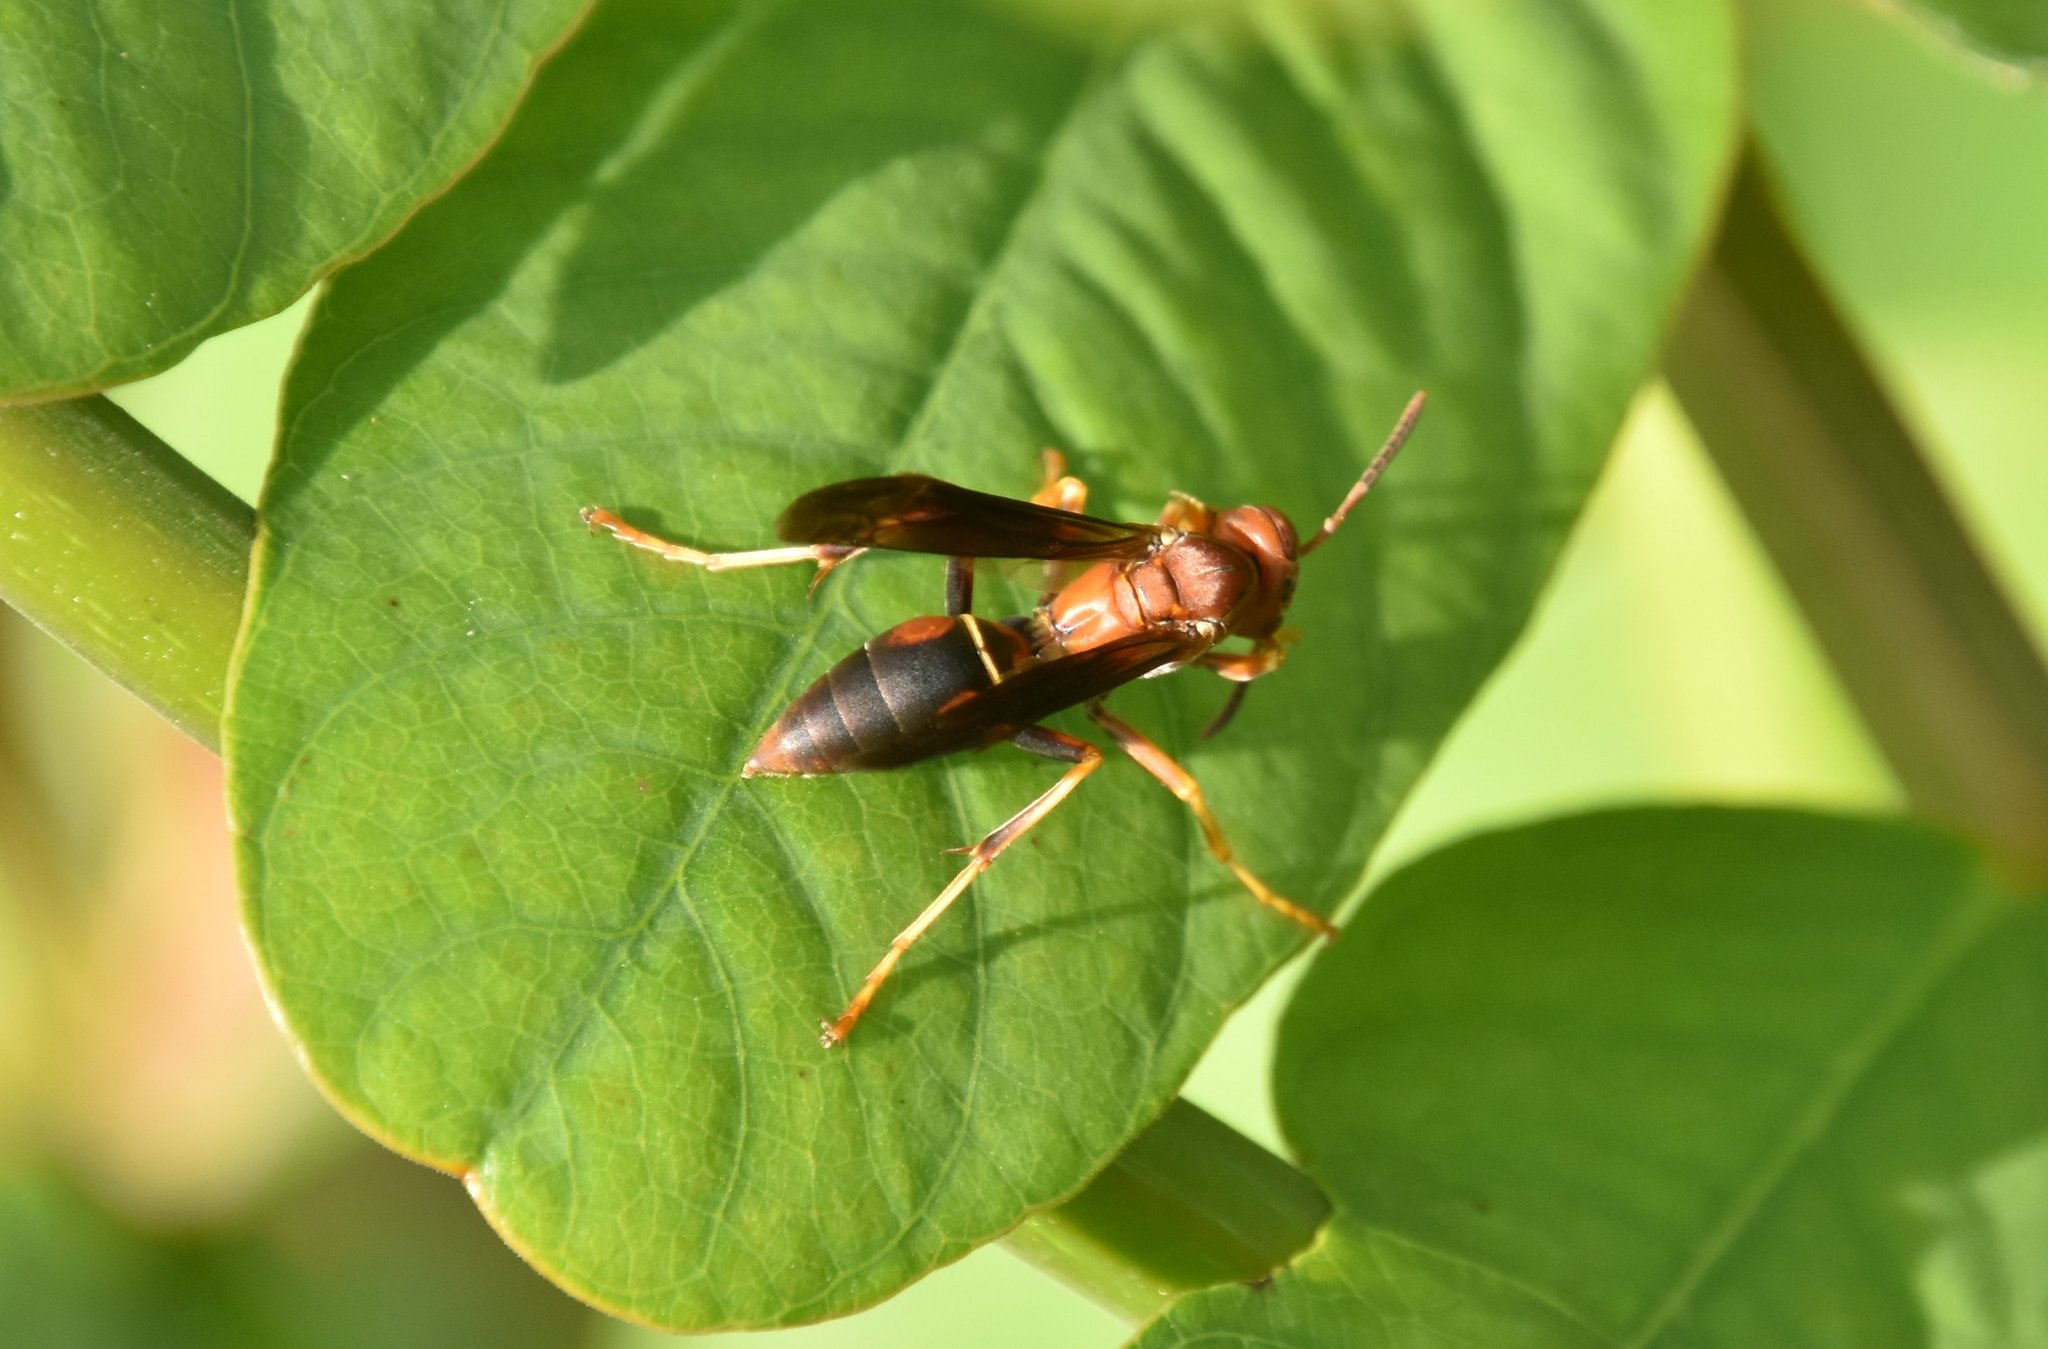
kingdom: Animalia
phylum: Arthropoda
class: Insecta
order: Hymenoptera
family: Eumenidae
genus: Polistes
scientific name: Polistes fuscatus
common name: Dark paper wasp
